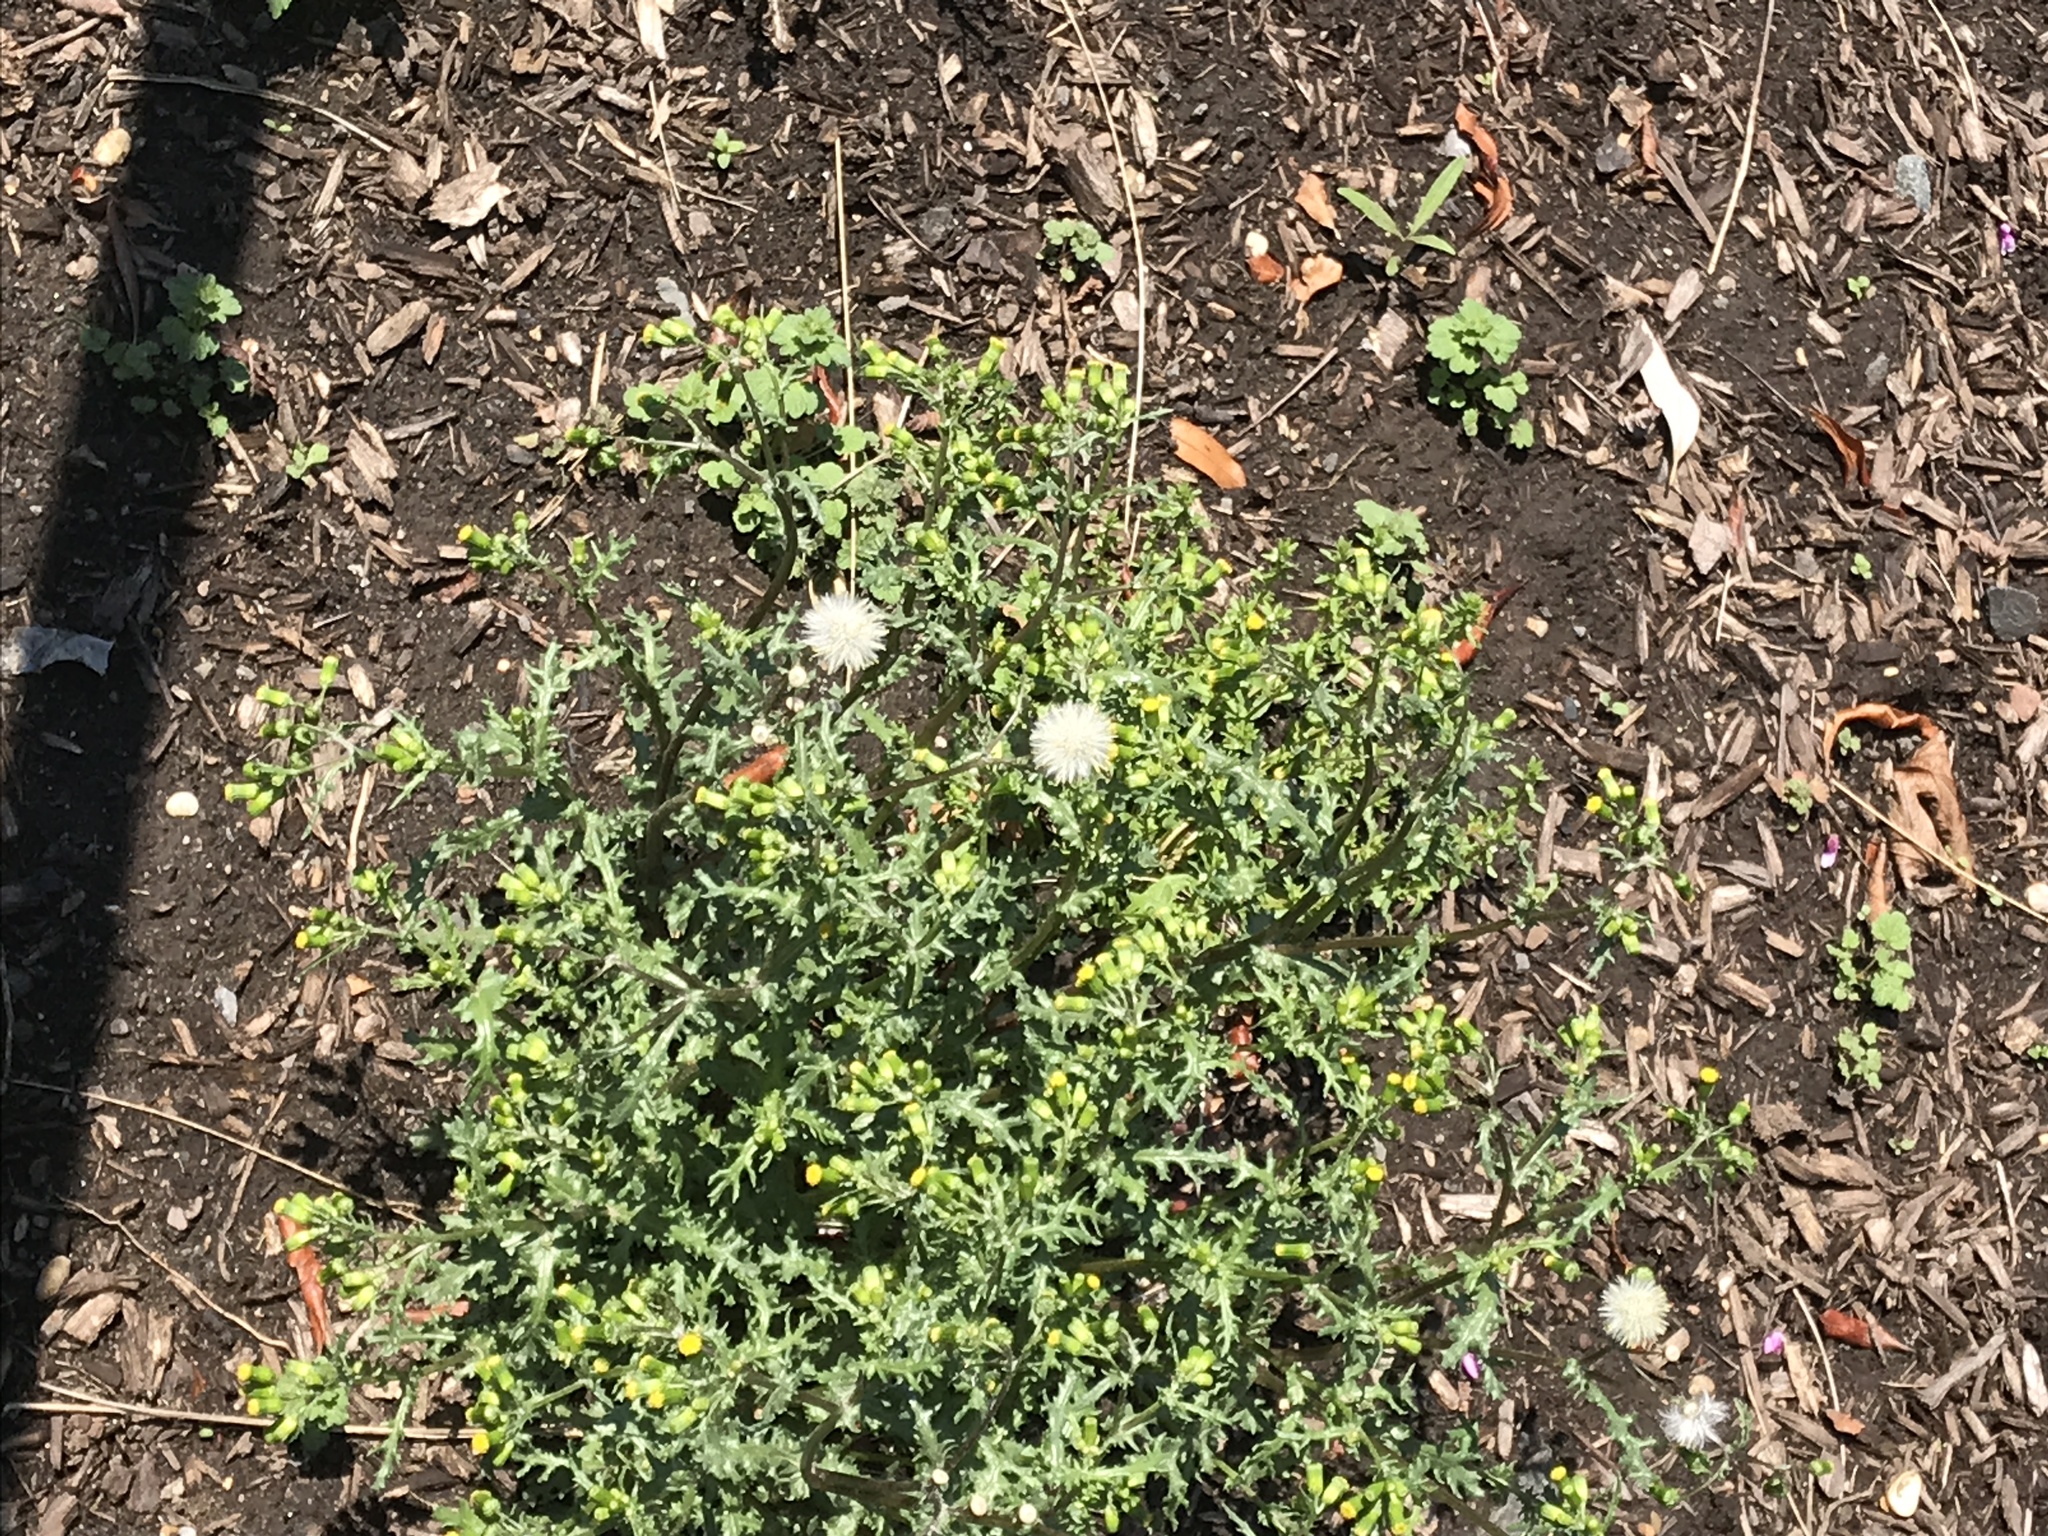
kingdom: Plantae
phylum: Tracheophyta
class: Magnoliopsida
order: Asterales
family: Asteraceae
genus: Senecio
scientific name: Senecio vulgaris
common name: Old-man-in-the-spring
